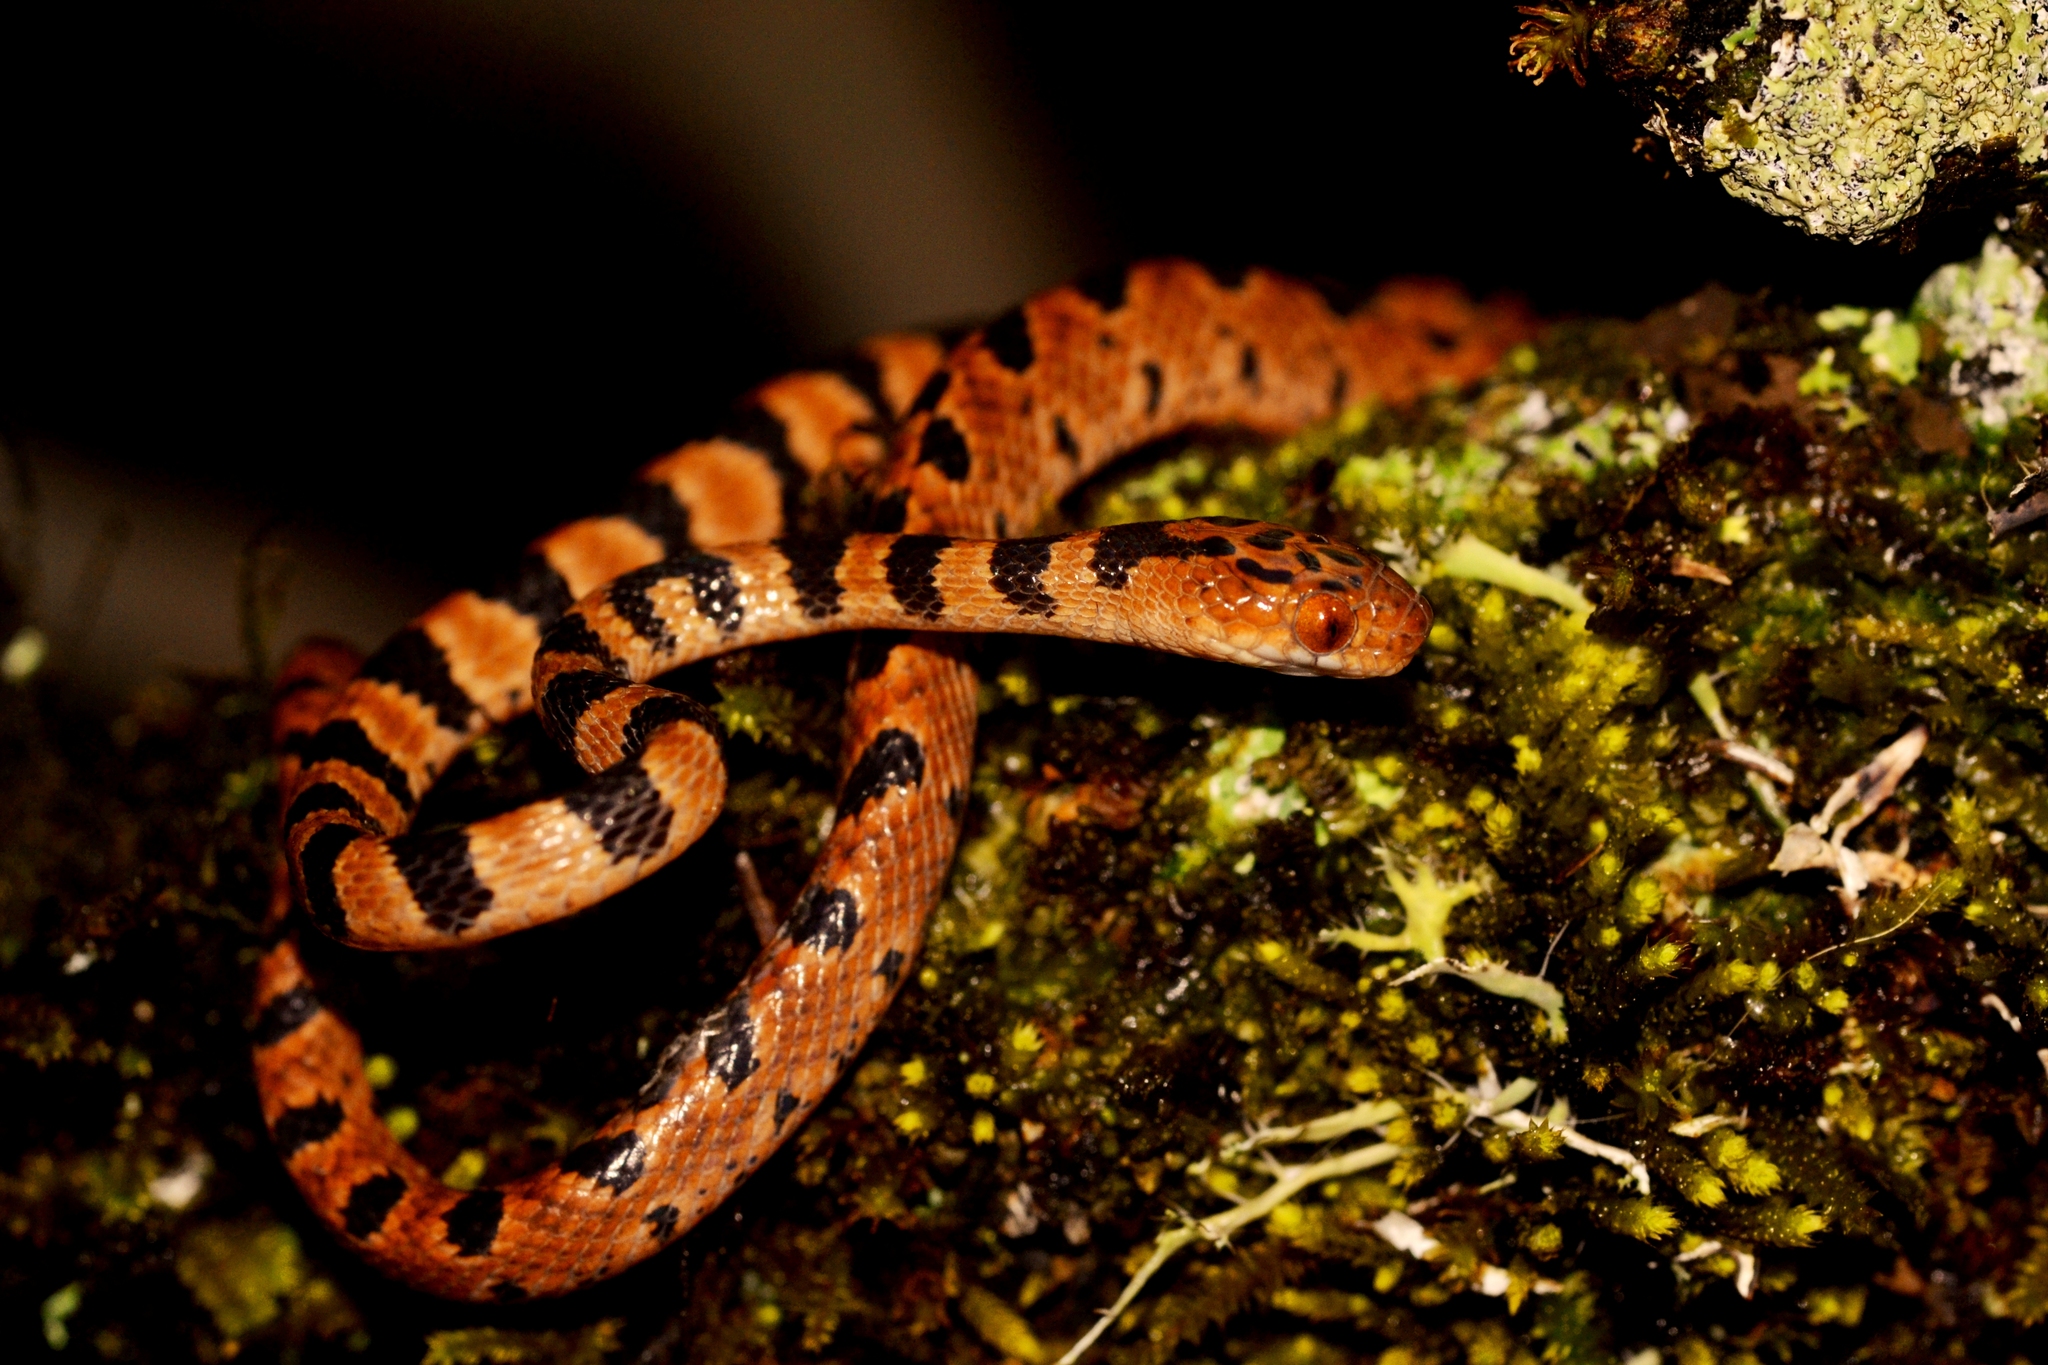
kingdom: Animalia
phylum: Chordata
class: Squamata
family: Colubridae
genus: Imantodes
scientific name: Imantodes gemmistratus
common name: Central american tree snake
